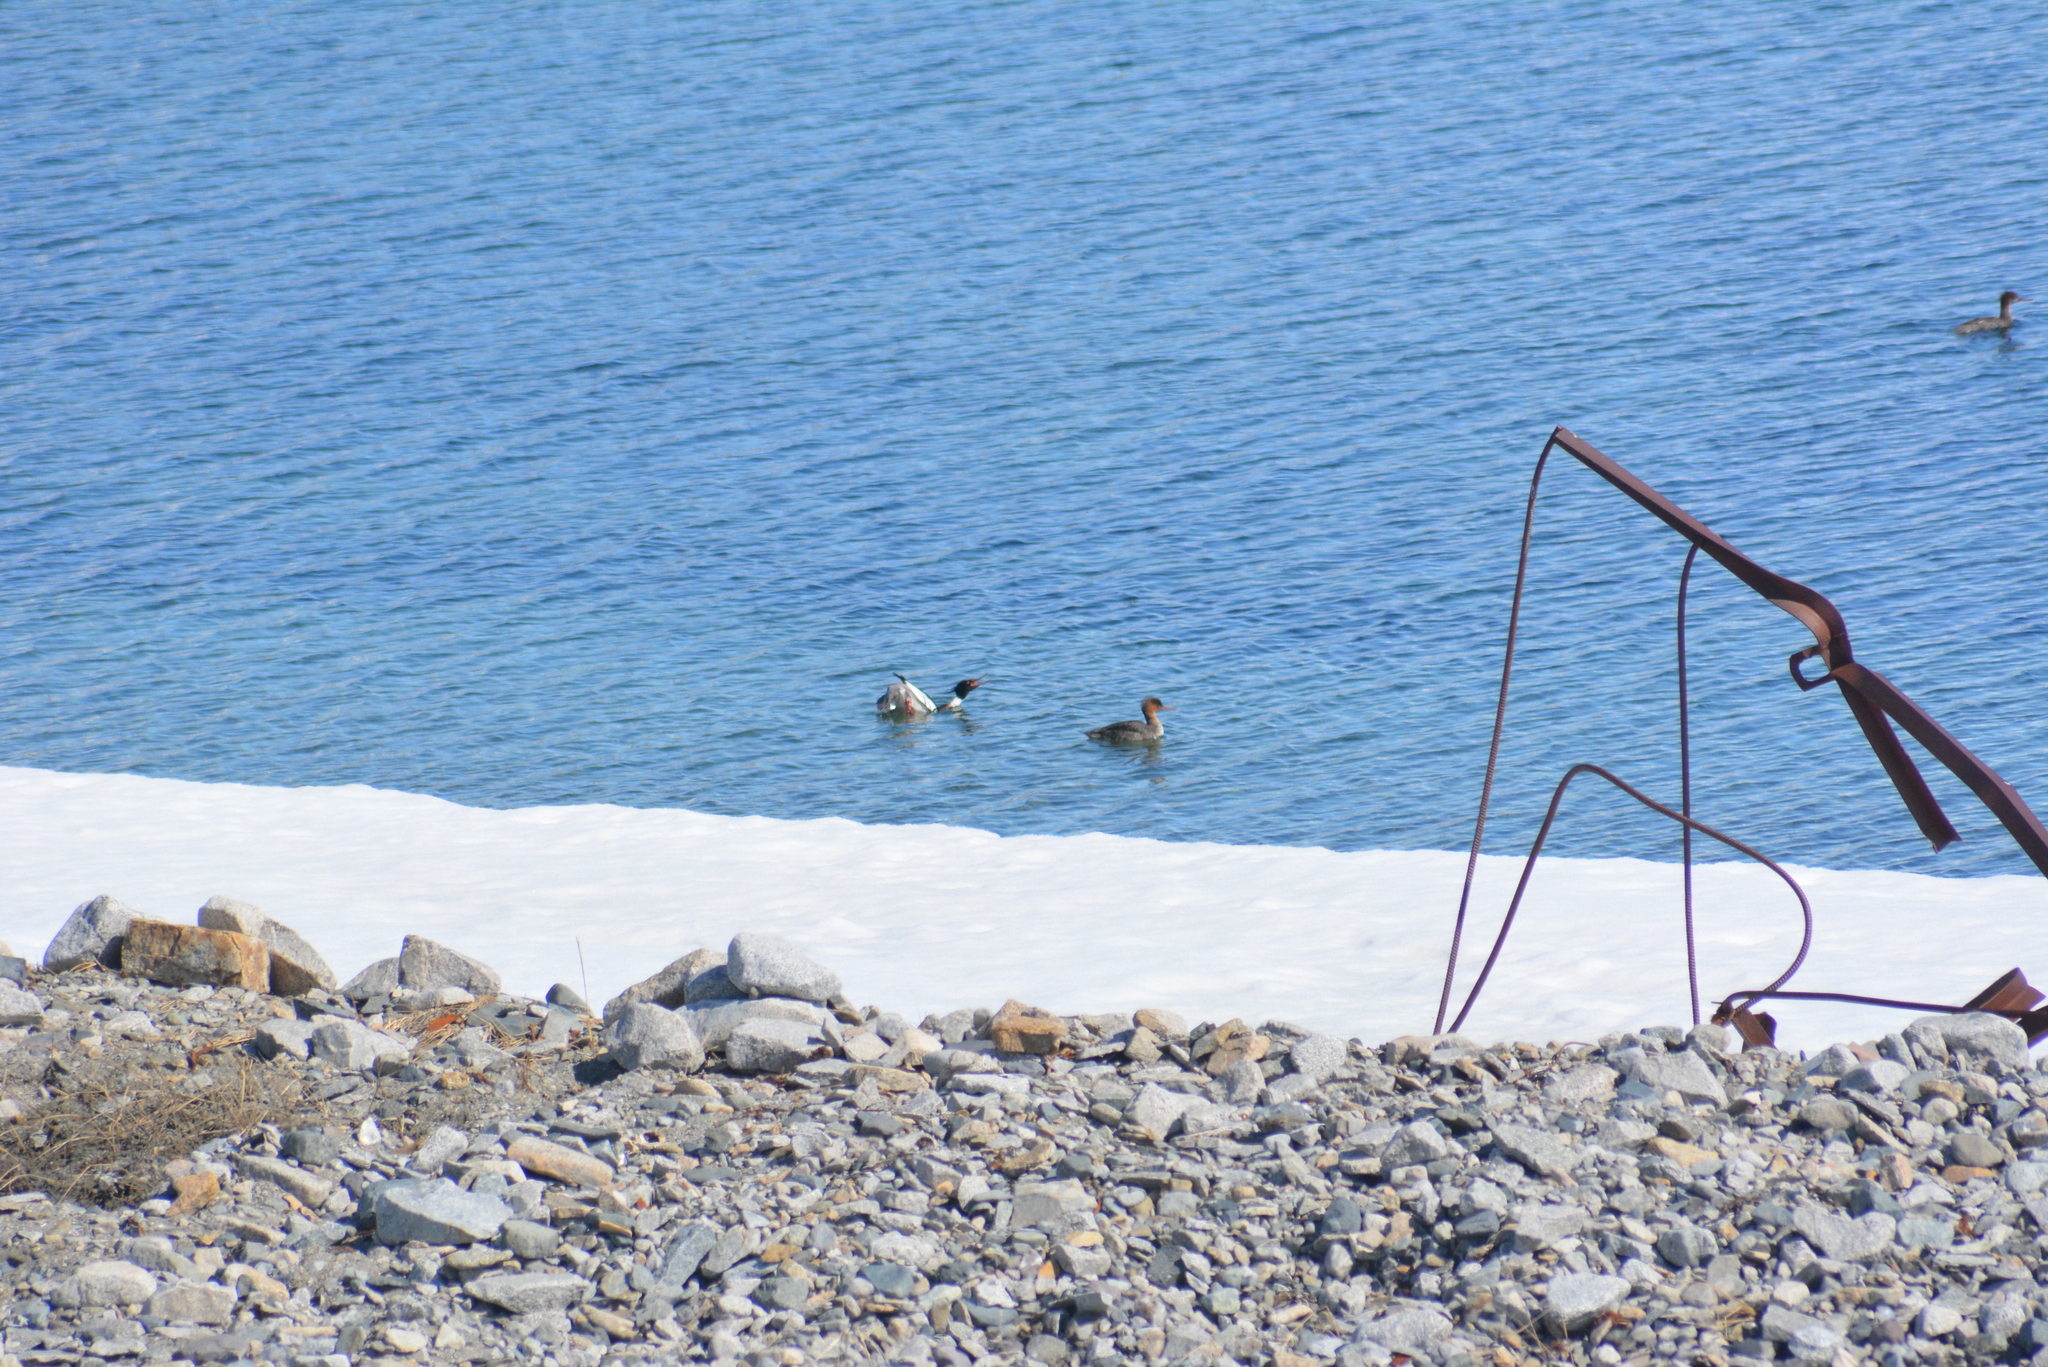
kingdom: Animalia
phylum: Chordata
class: Aves
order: Anseriformes
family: Anatidae
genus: Mergus
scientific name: Mergus serrator
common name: Red-breasted merganser
